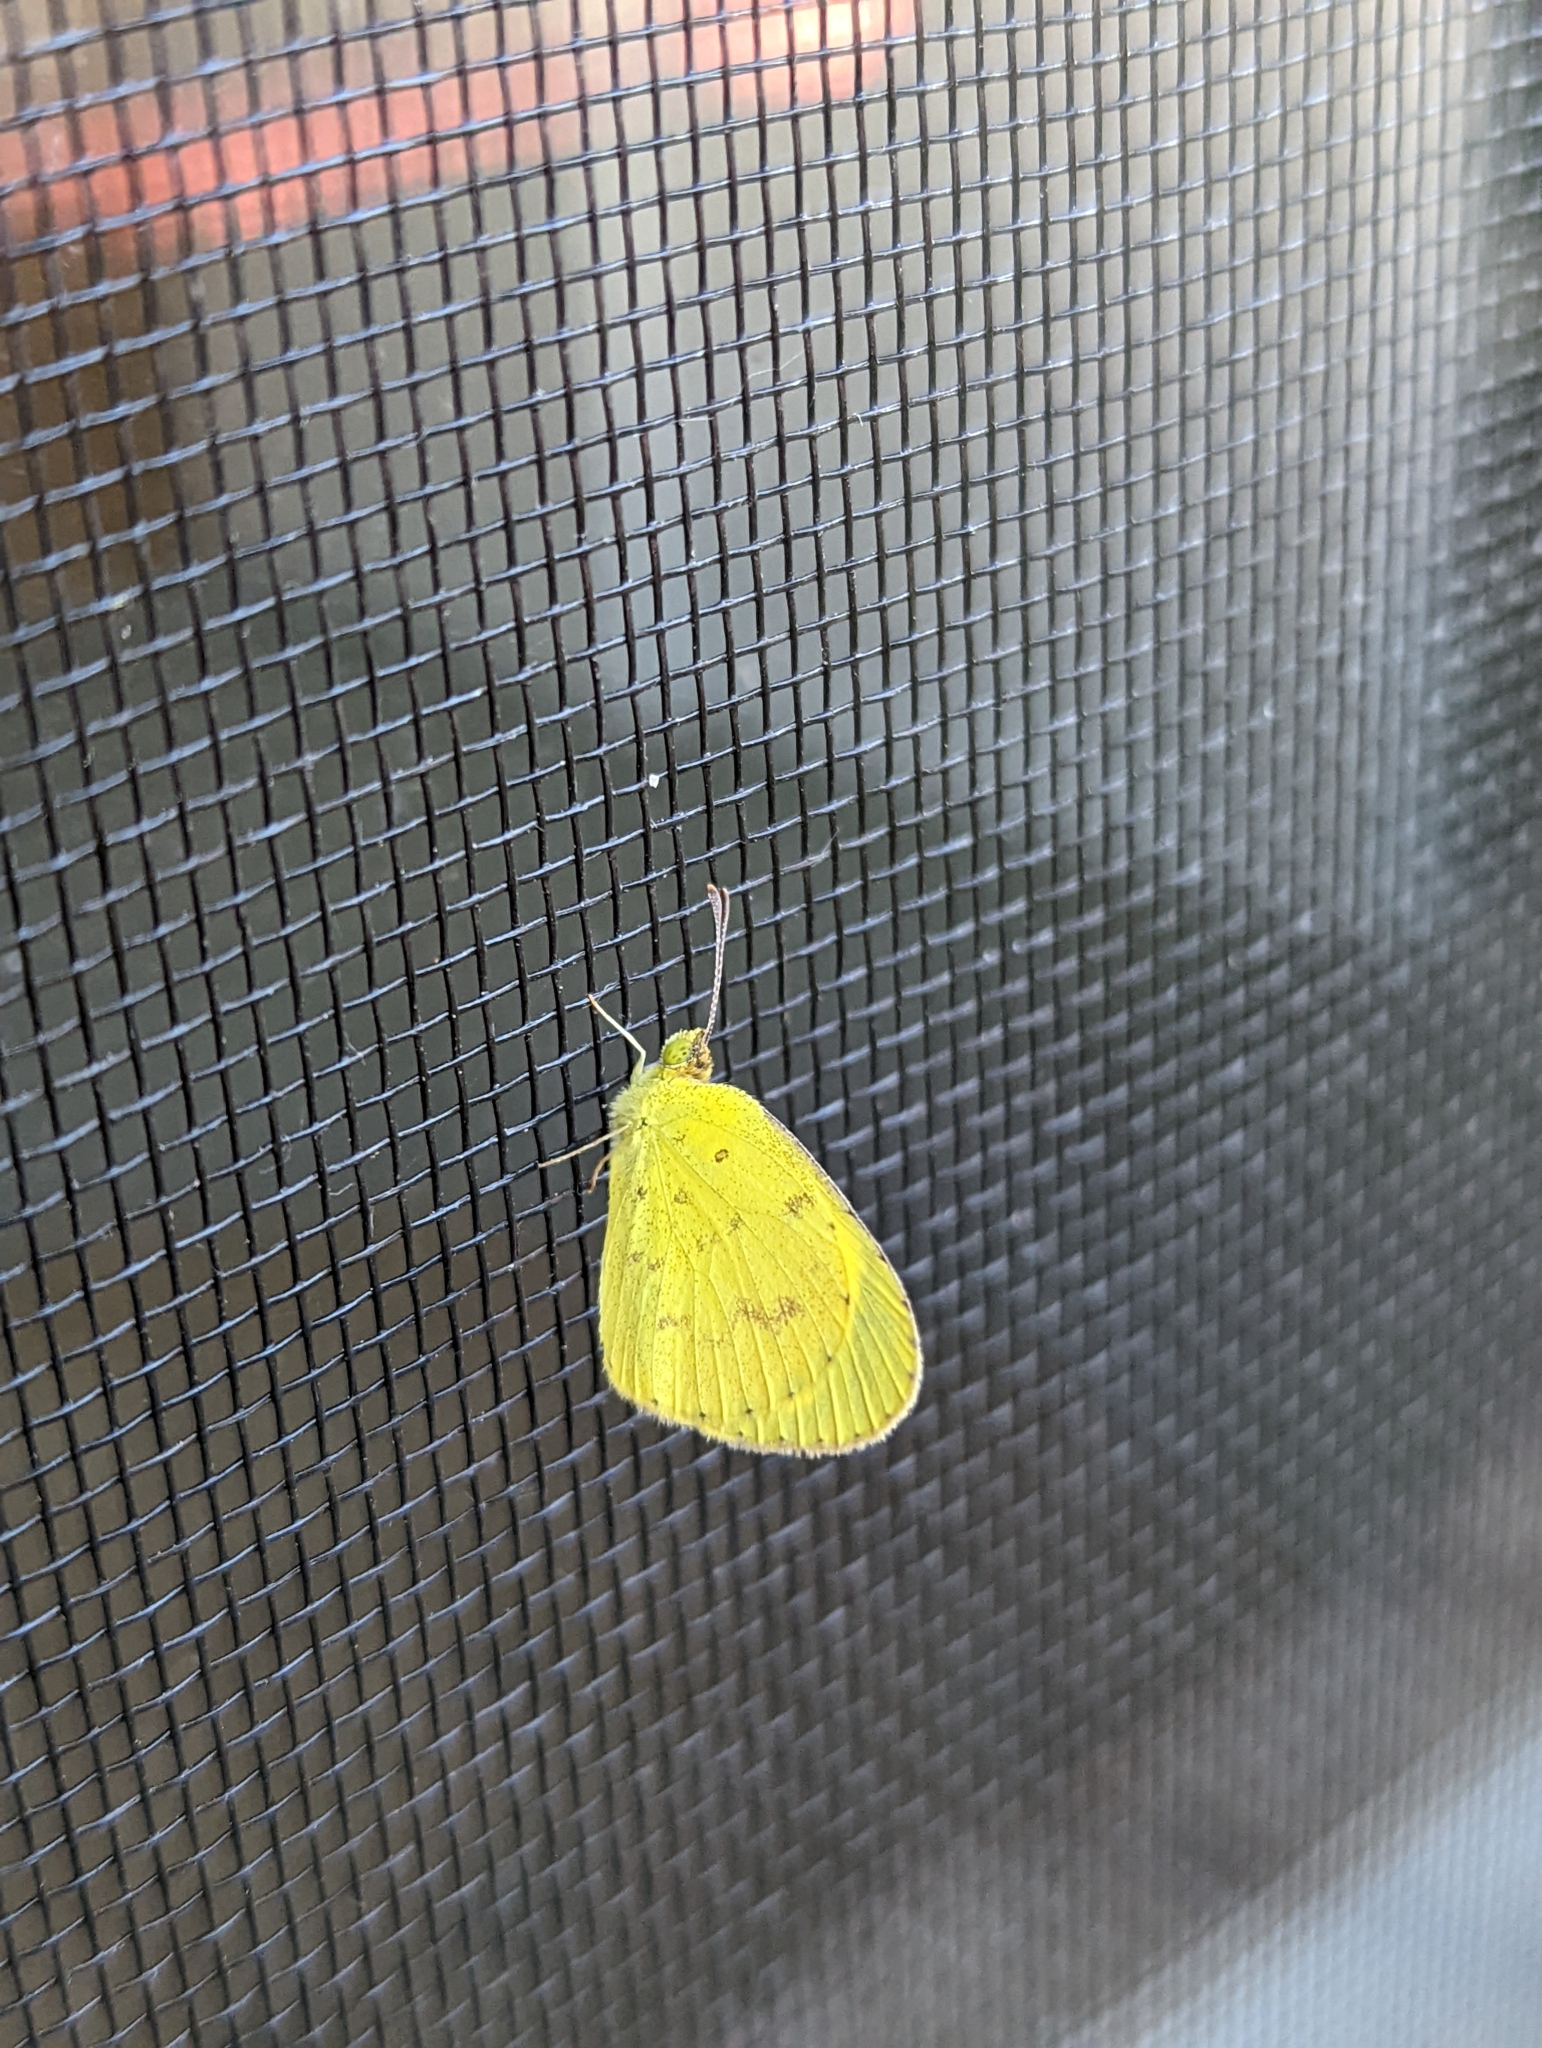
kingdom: Animalia
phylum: Arthropoda
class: Insecta
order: Lepidoptera
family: Pieridae
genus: Eurema
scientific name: Eurema smilax
